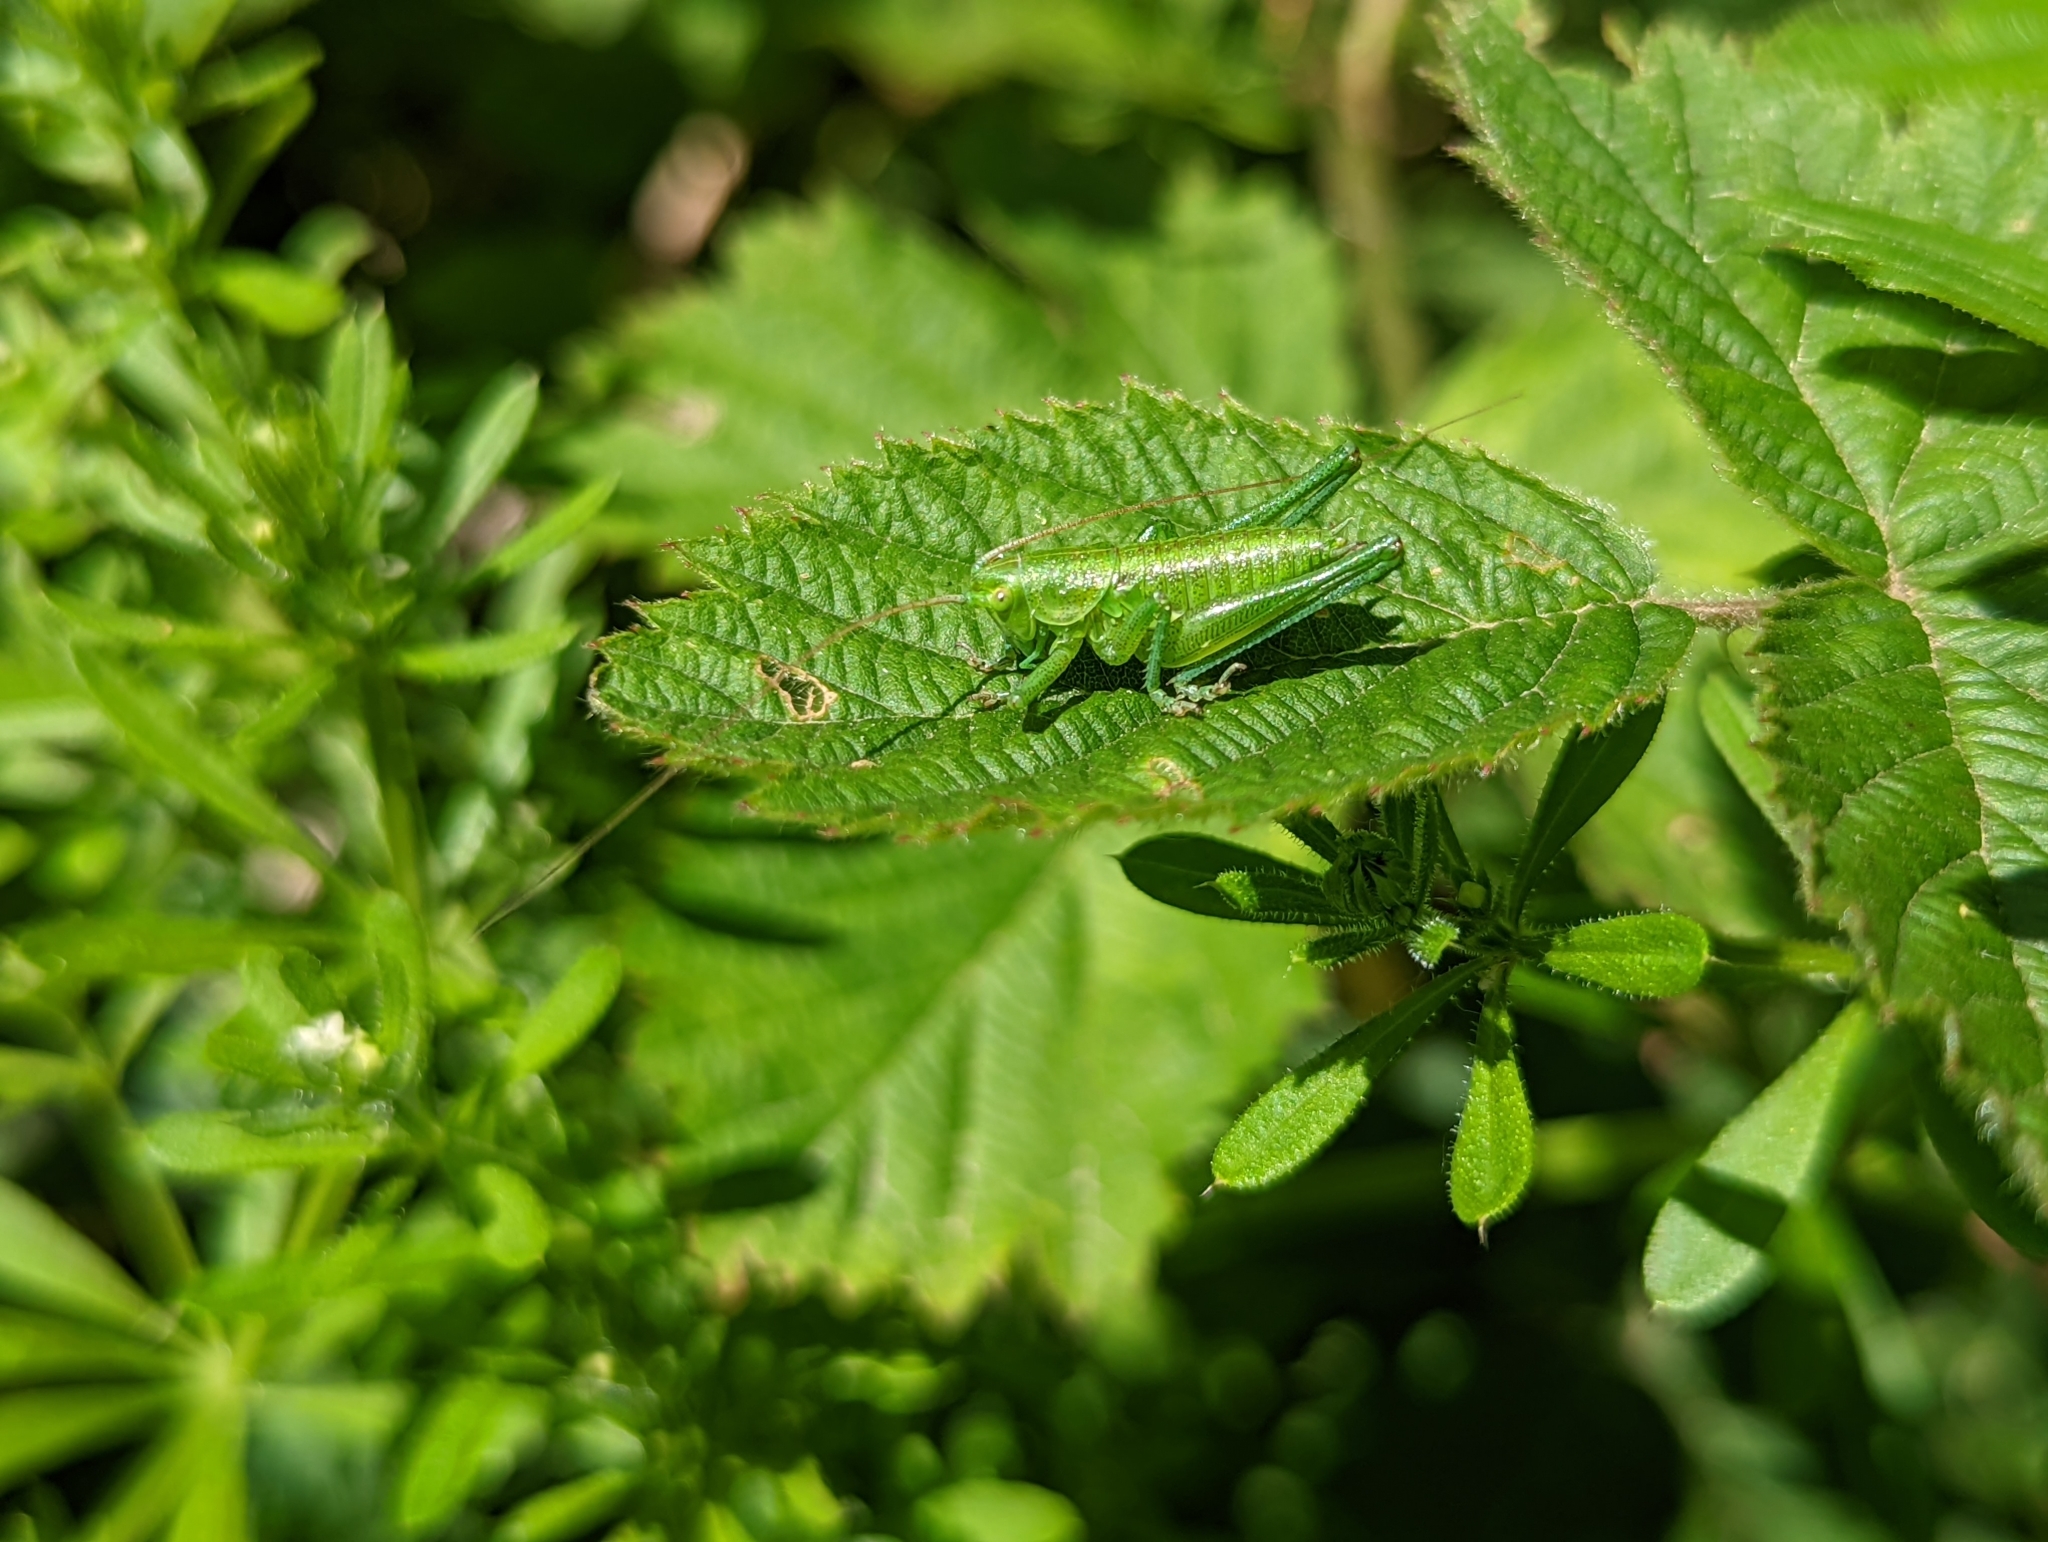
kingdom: Animalia
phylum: Arthropoda
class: Insecta
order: Orthoptera
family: Tettigoniidae
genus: Tettigonia
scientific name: Tettigonia viridissima
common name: Great green bush-cricket
